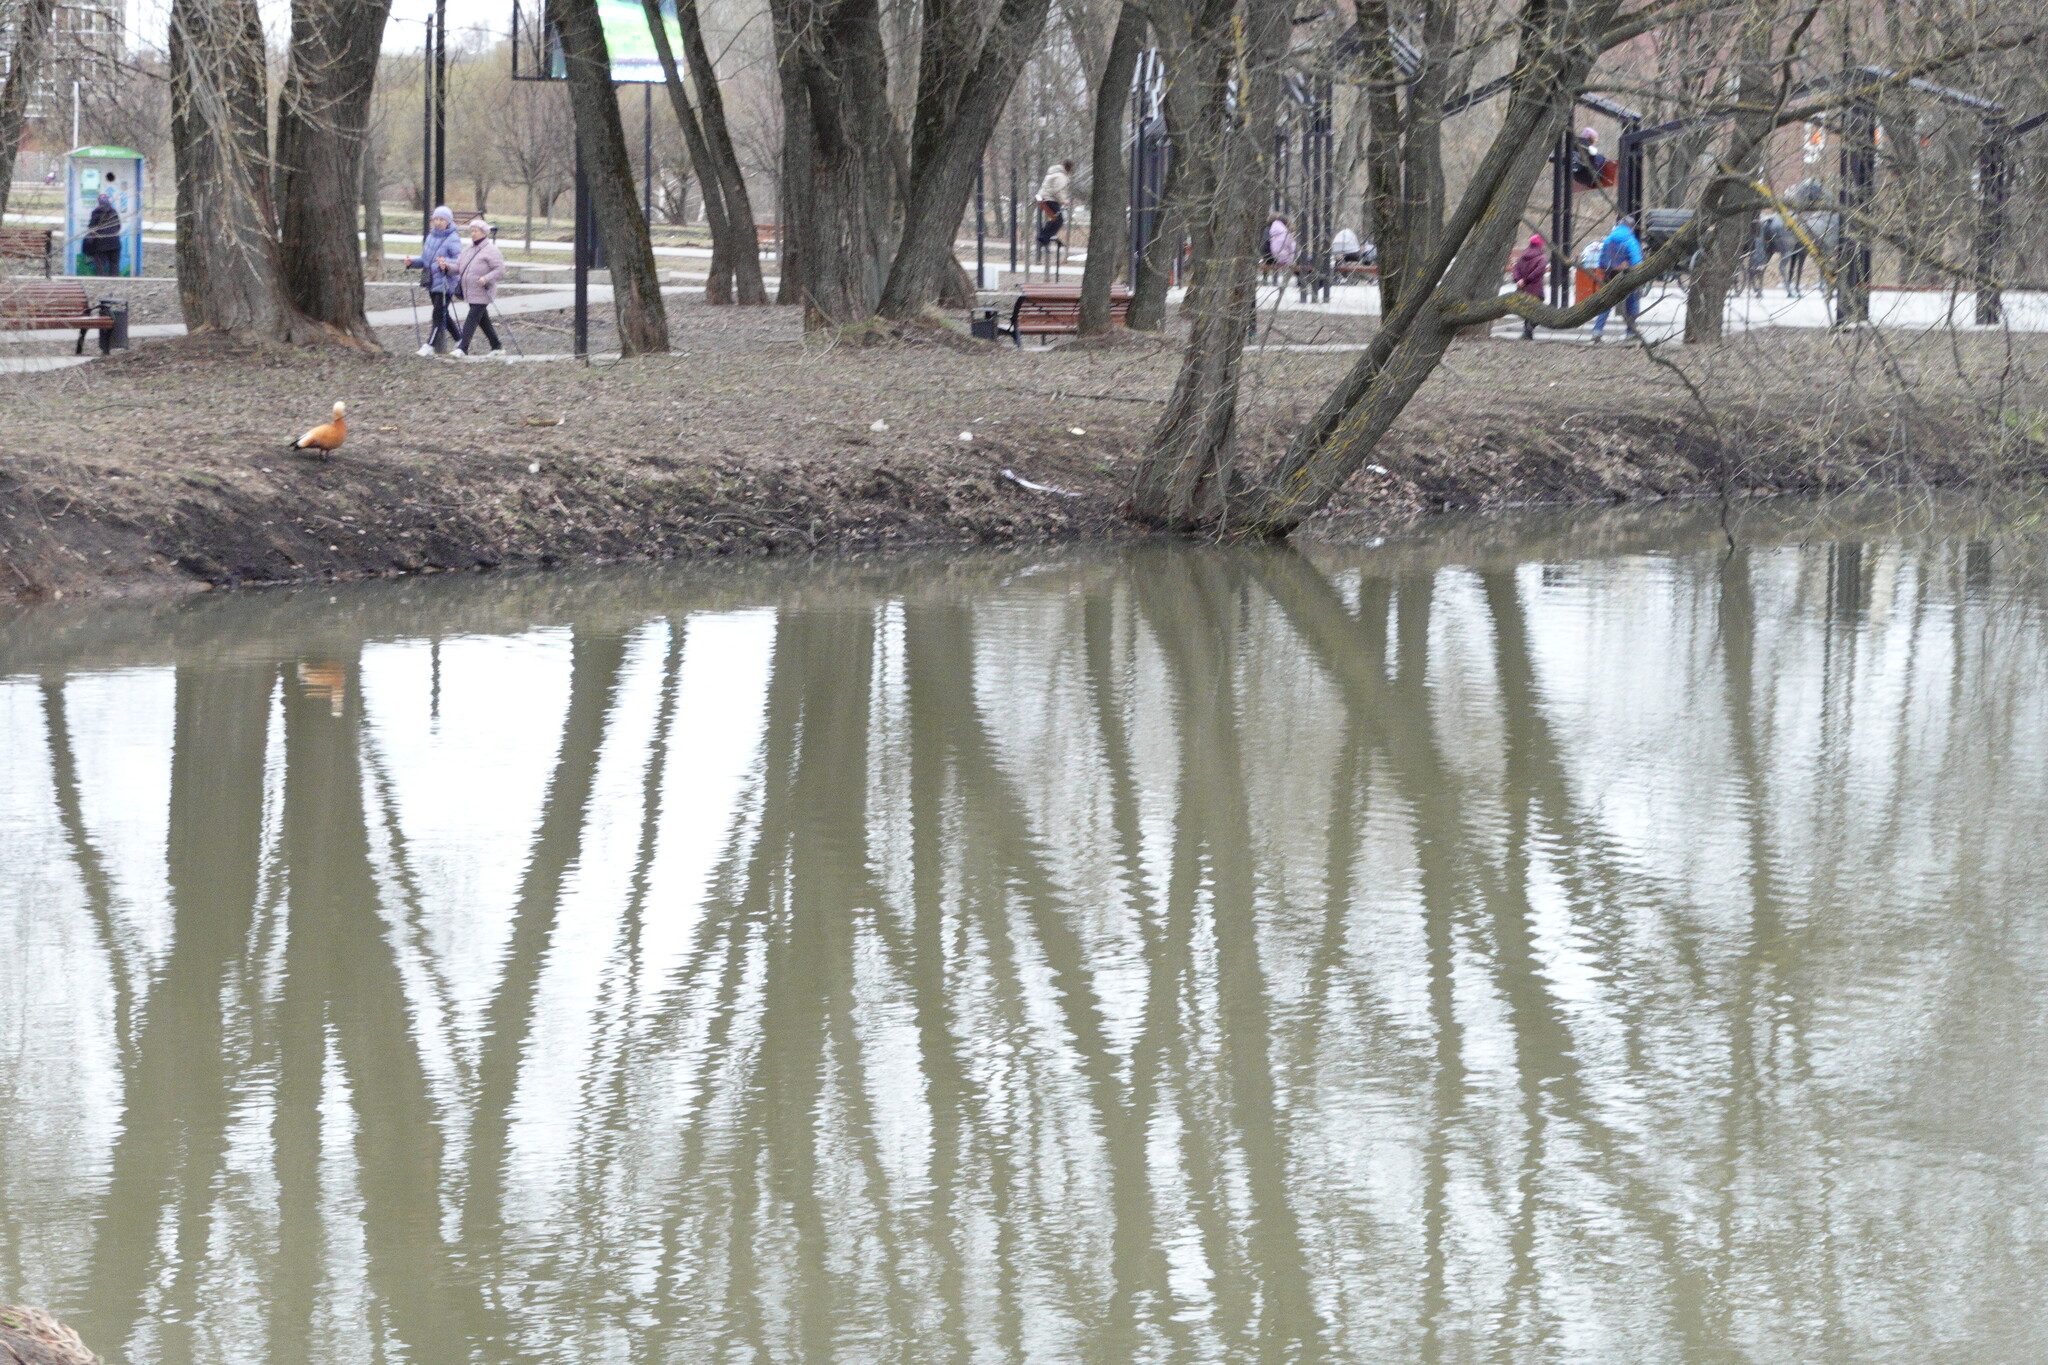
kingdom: Animalia
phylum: Chordata
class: Aves
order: Anseriformes
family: Anatidae
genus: Tadorna
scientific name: Tadorna ferruginea
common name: Ruddy shelduck
